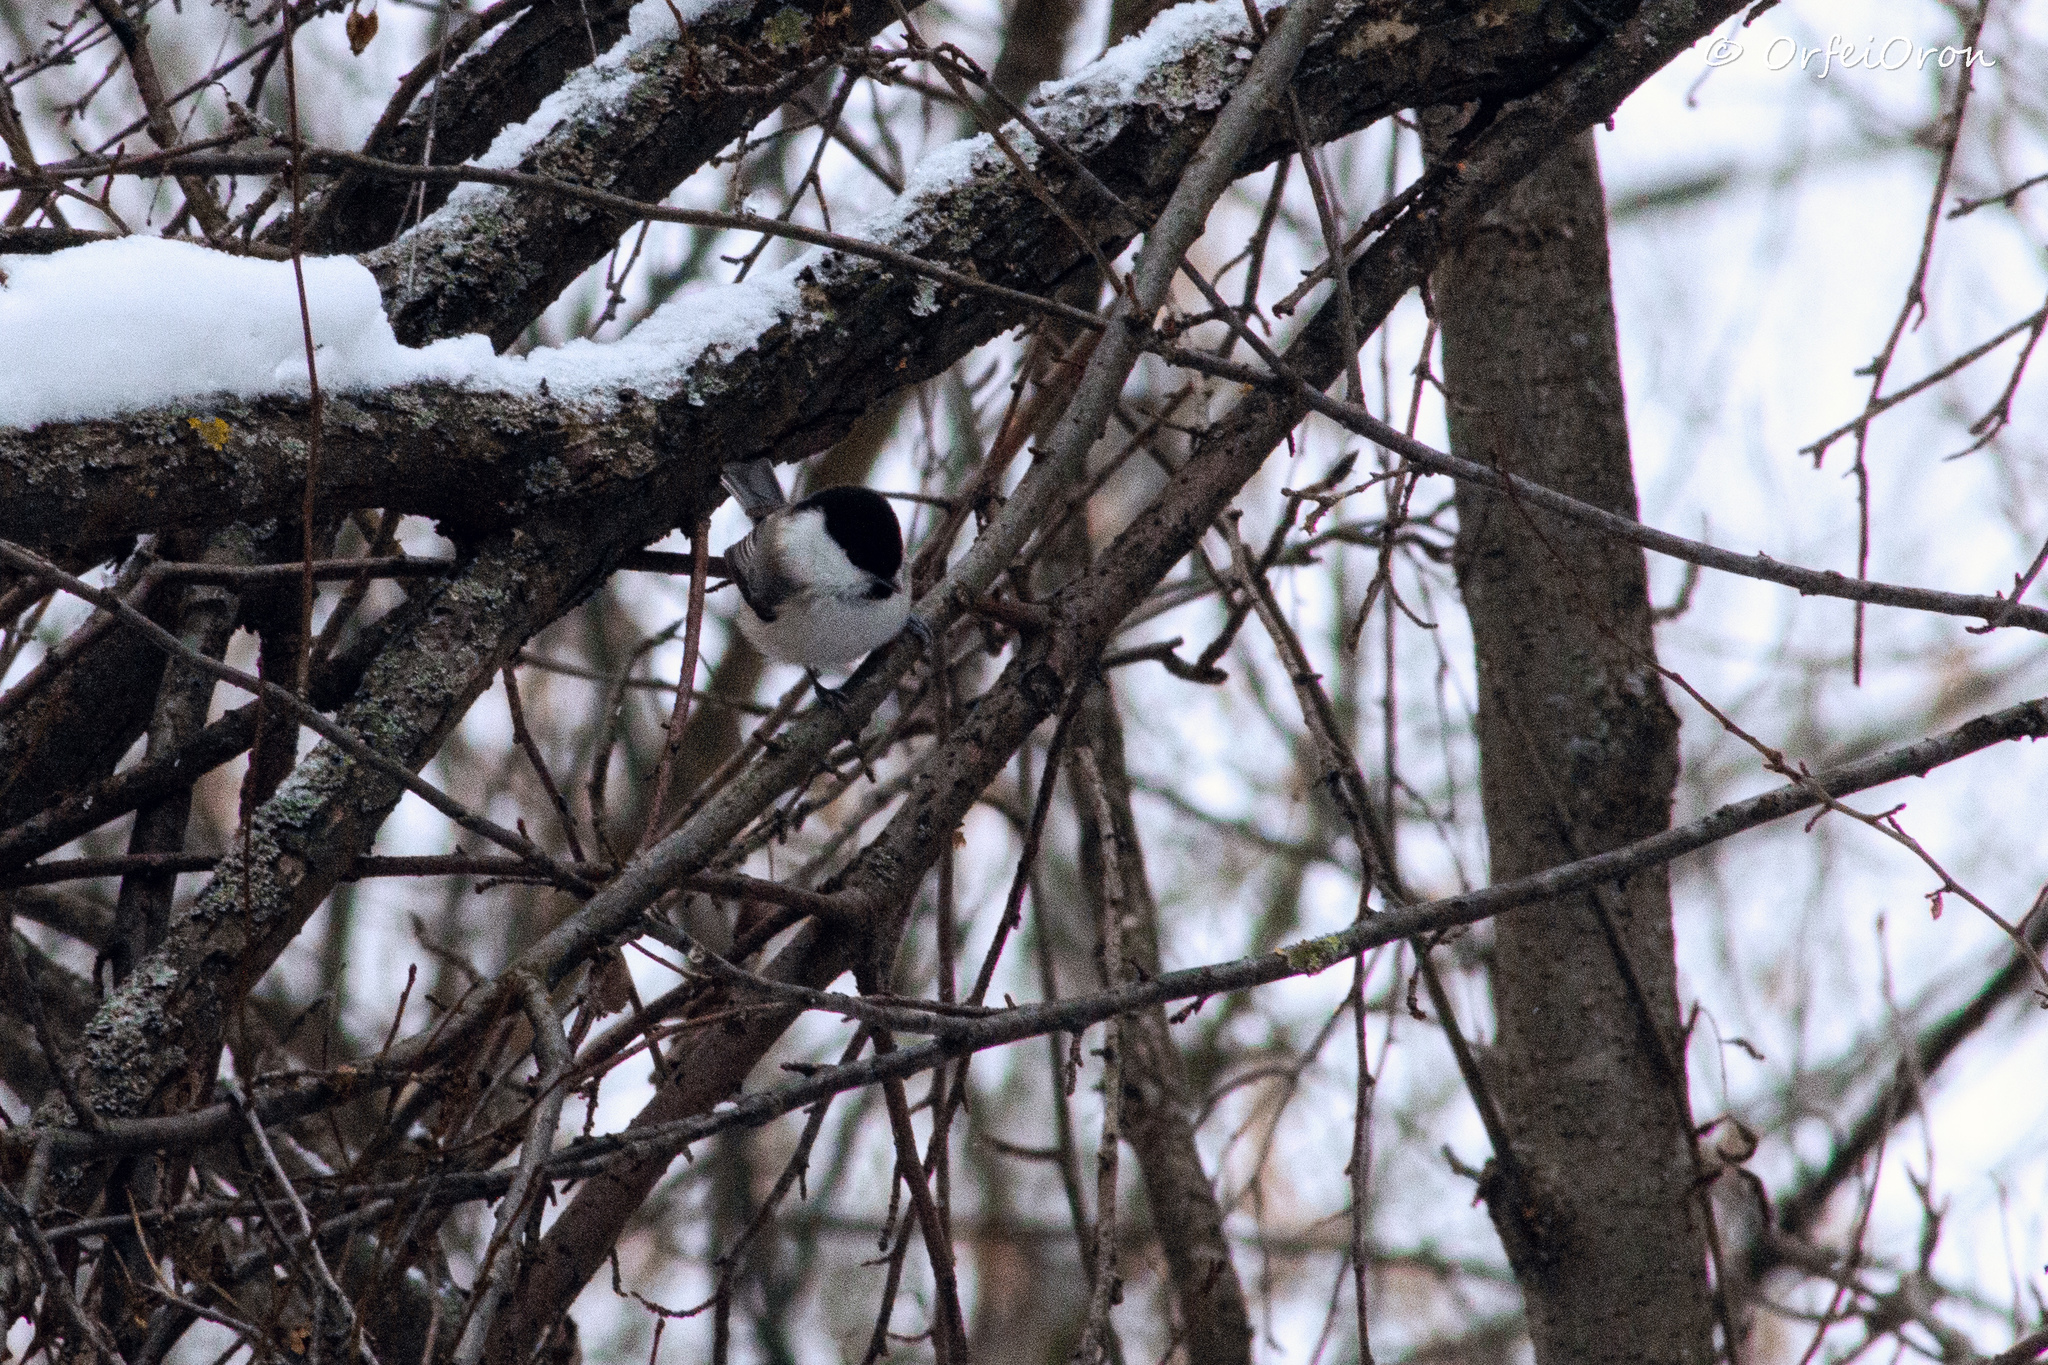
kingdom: Animalia
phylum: Chordata
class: Aves
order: Passeriformes
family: Paridae
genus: Poecile
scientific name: Poecile montanus
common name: Willow tit
